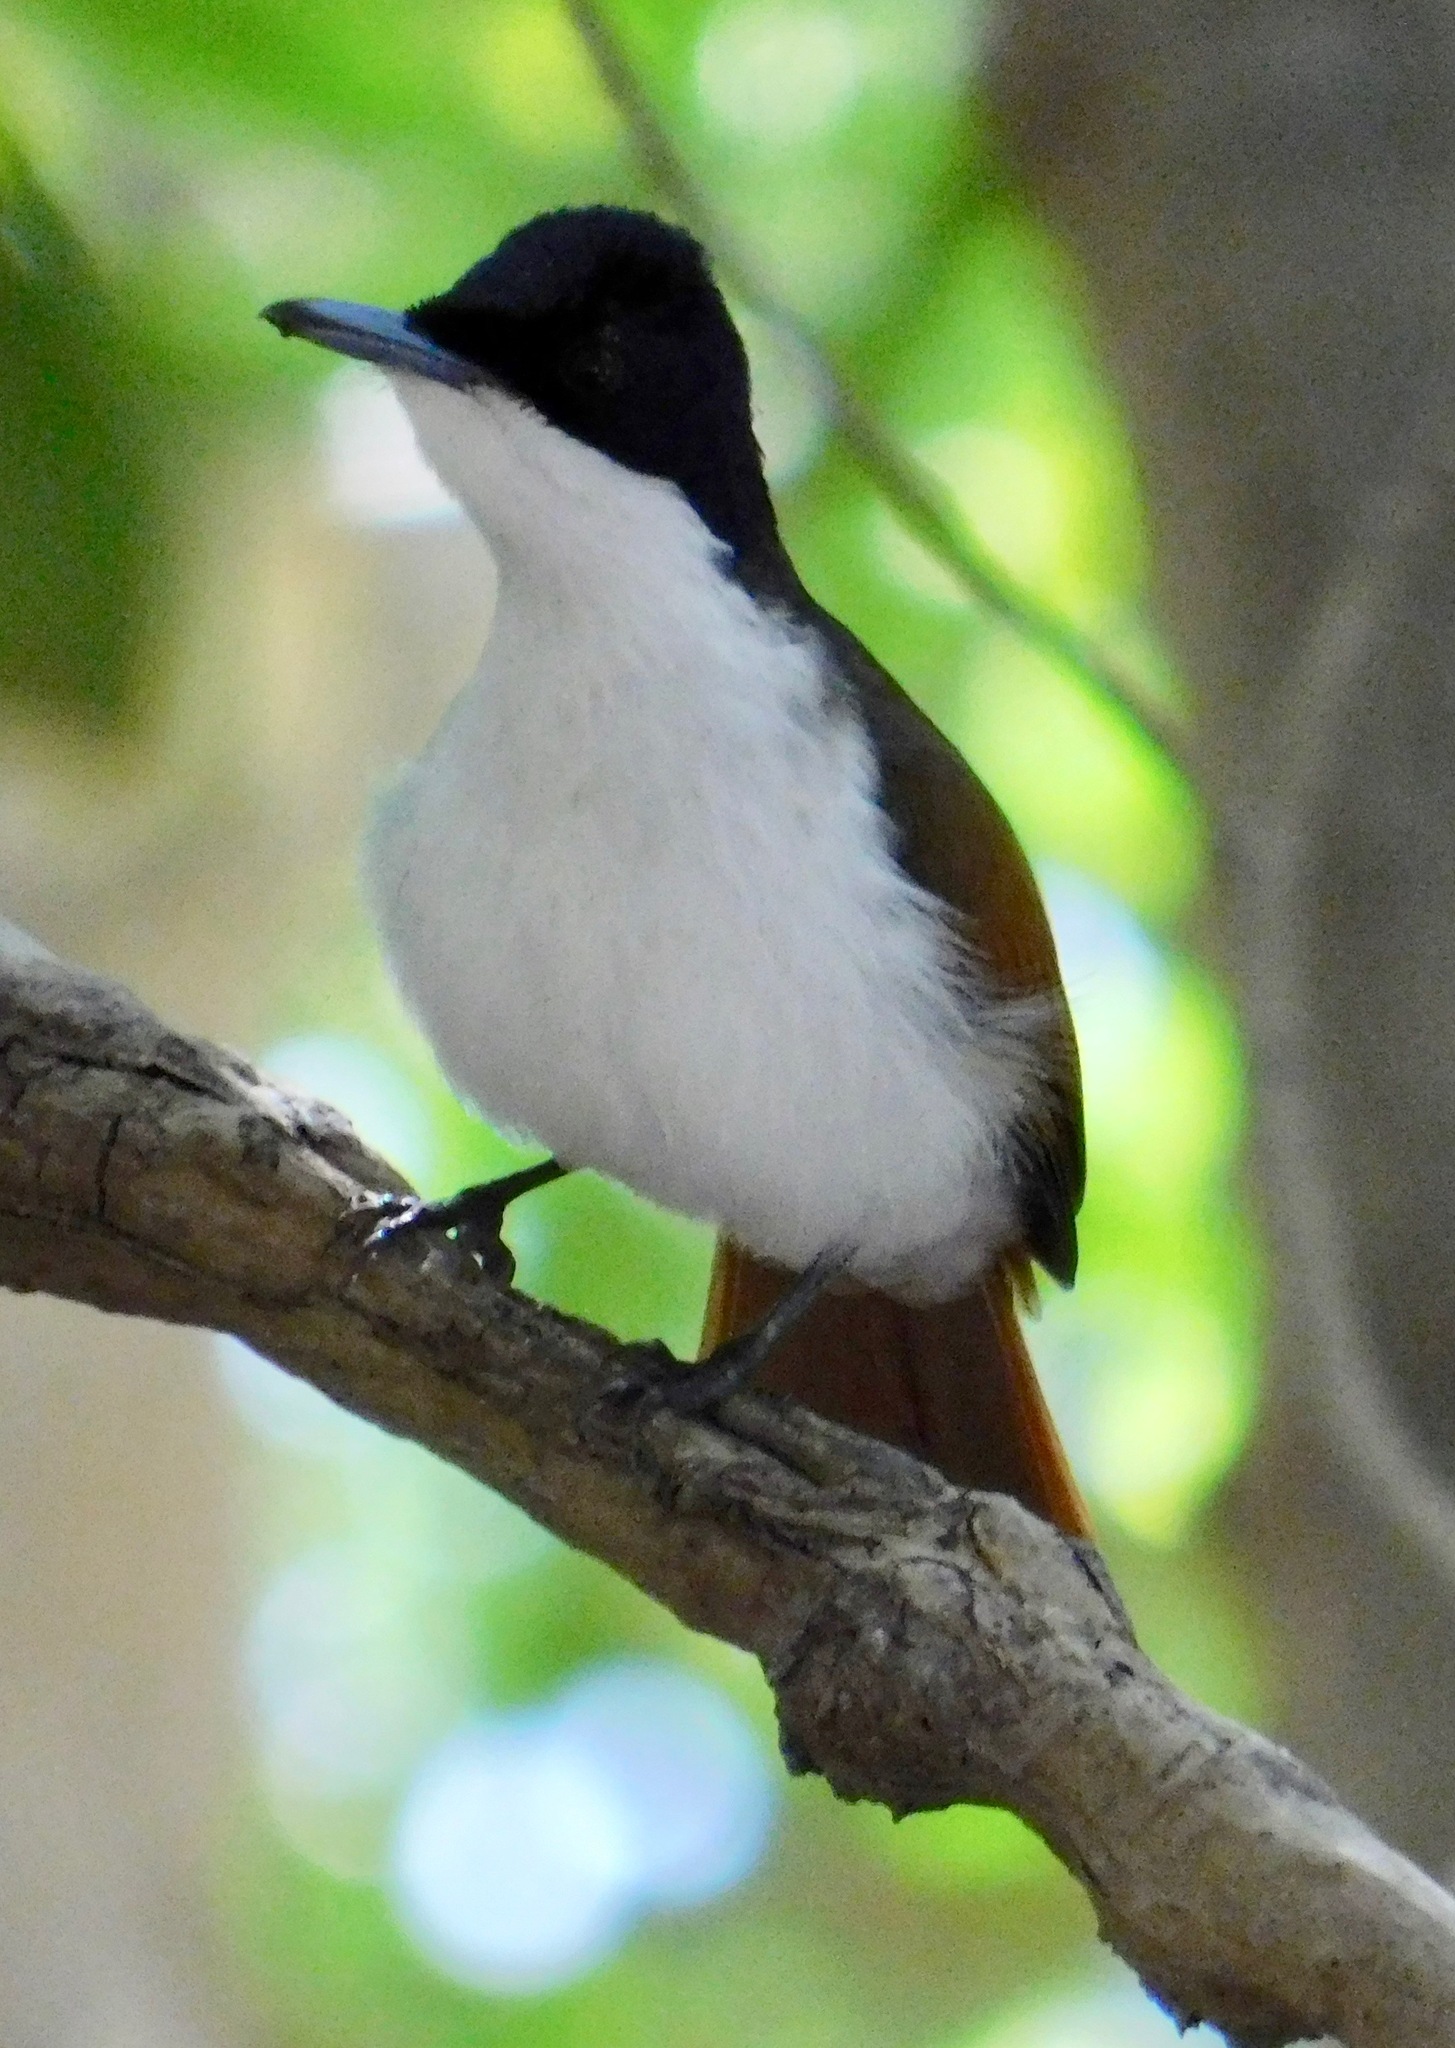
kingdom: Animalia
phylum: Chordata
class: Aves
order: Passeriformes
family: Monarchidae
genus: Myiagra
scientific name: Myiagra alecto
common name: Shining flycatcher
